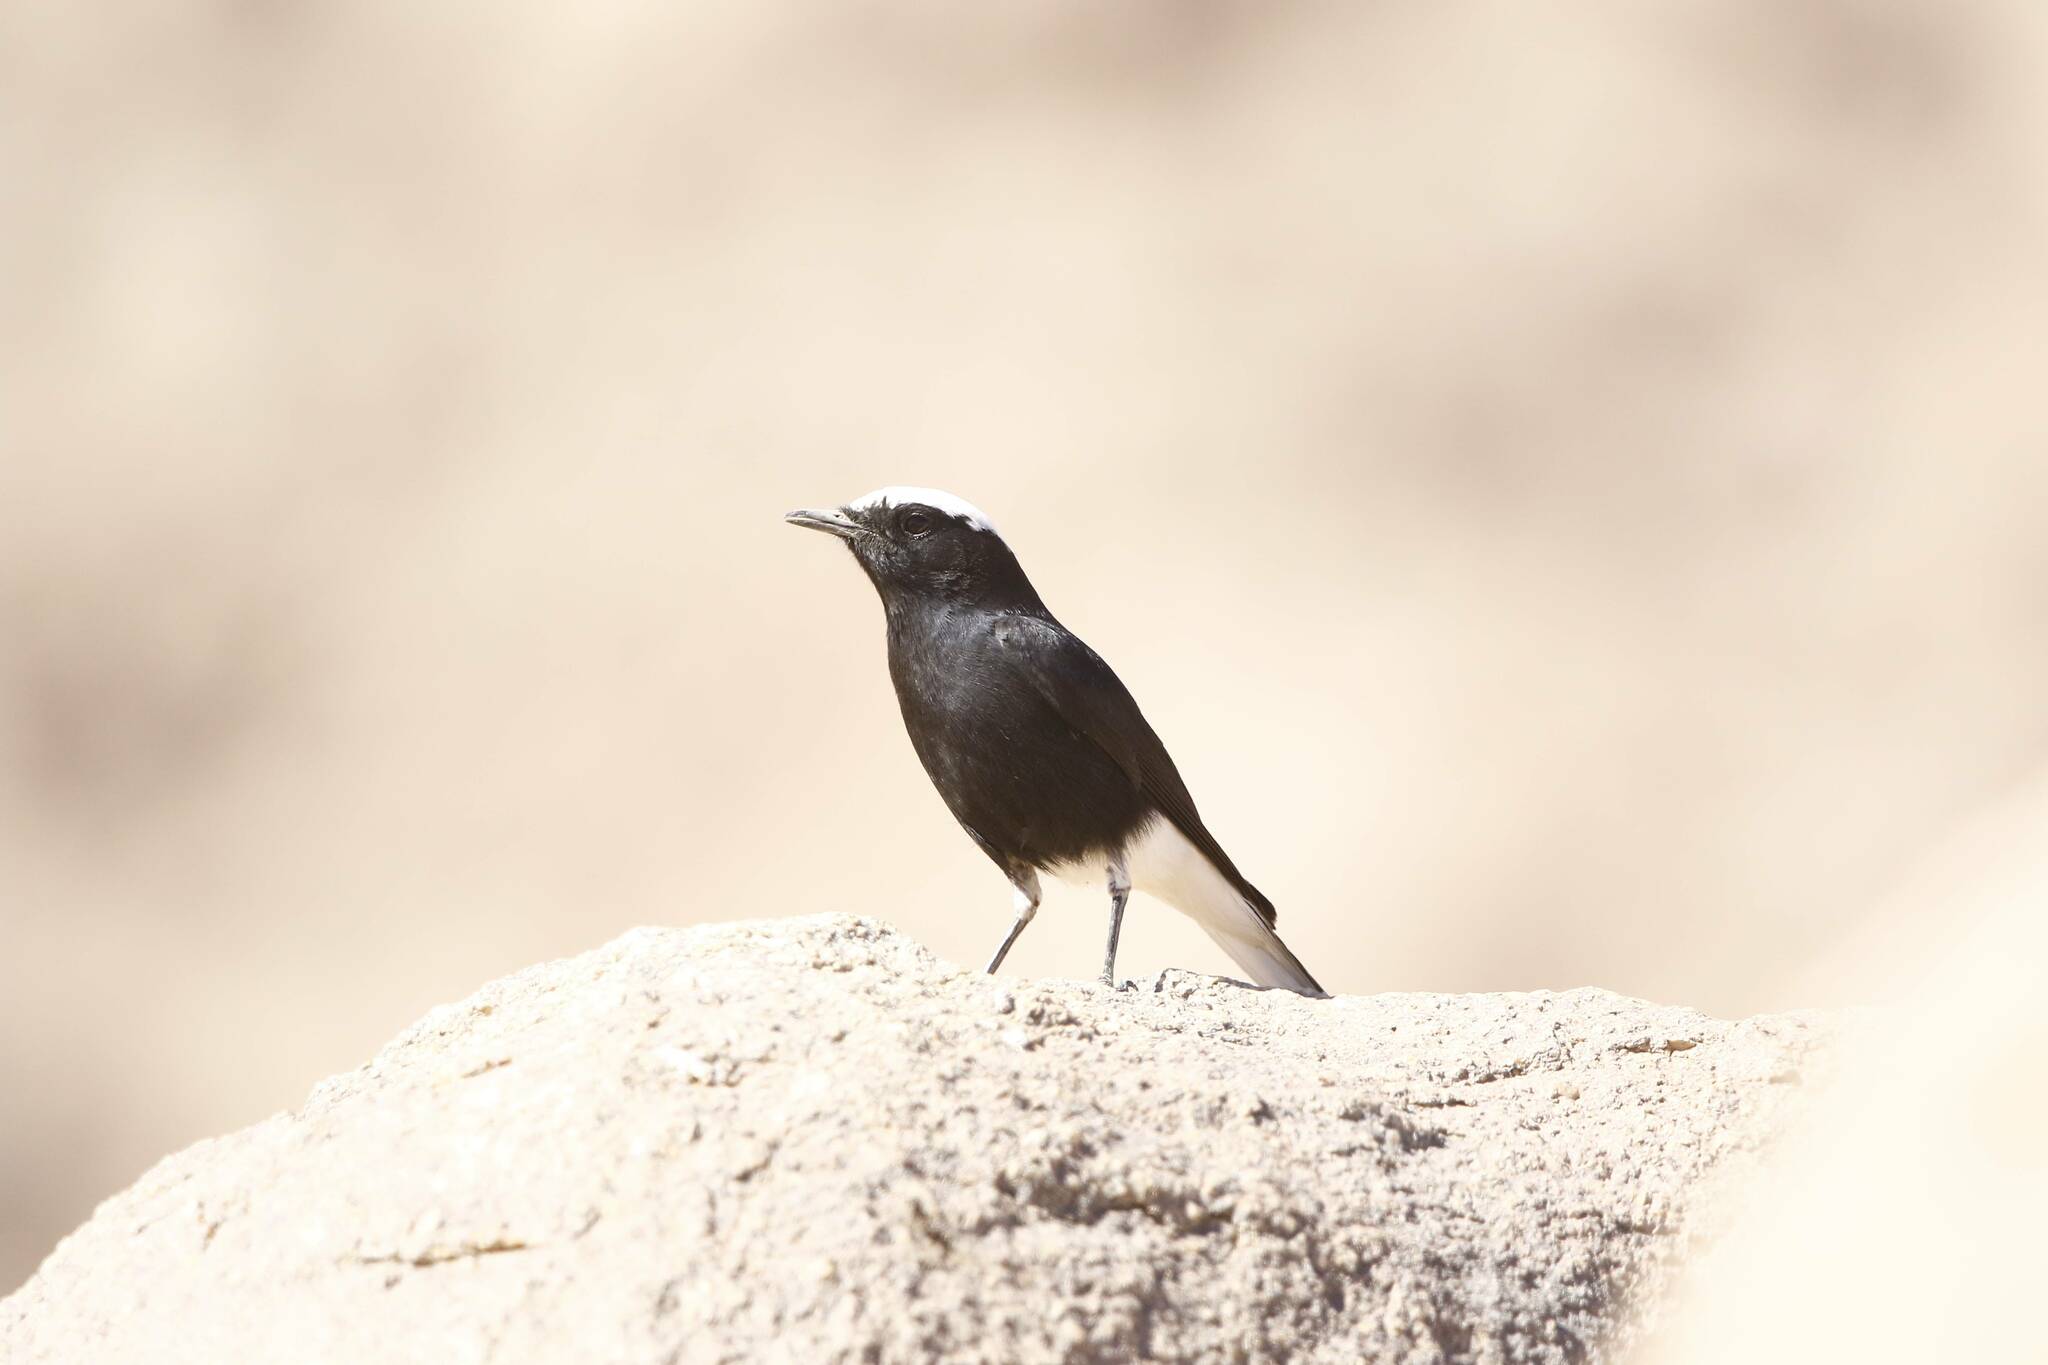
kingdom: Animalia
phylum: Chordata
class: Aves
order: Passeriformes
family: Muscicapidae
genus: Oenanthe
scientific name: Oenanthe leucopyga
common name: White-crowned wheatear
